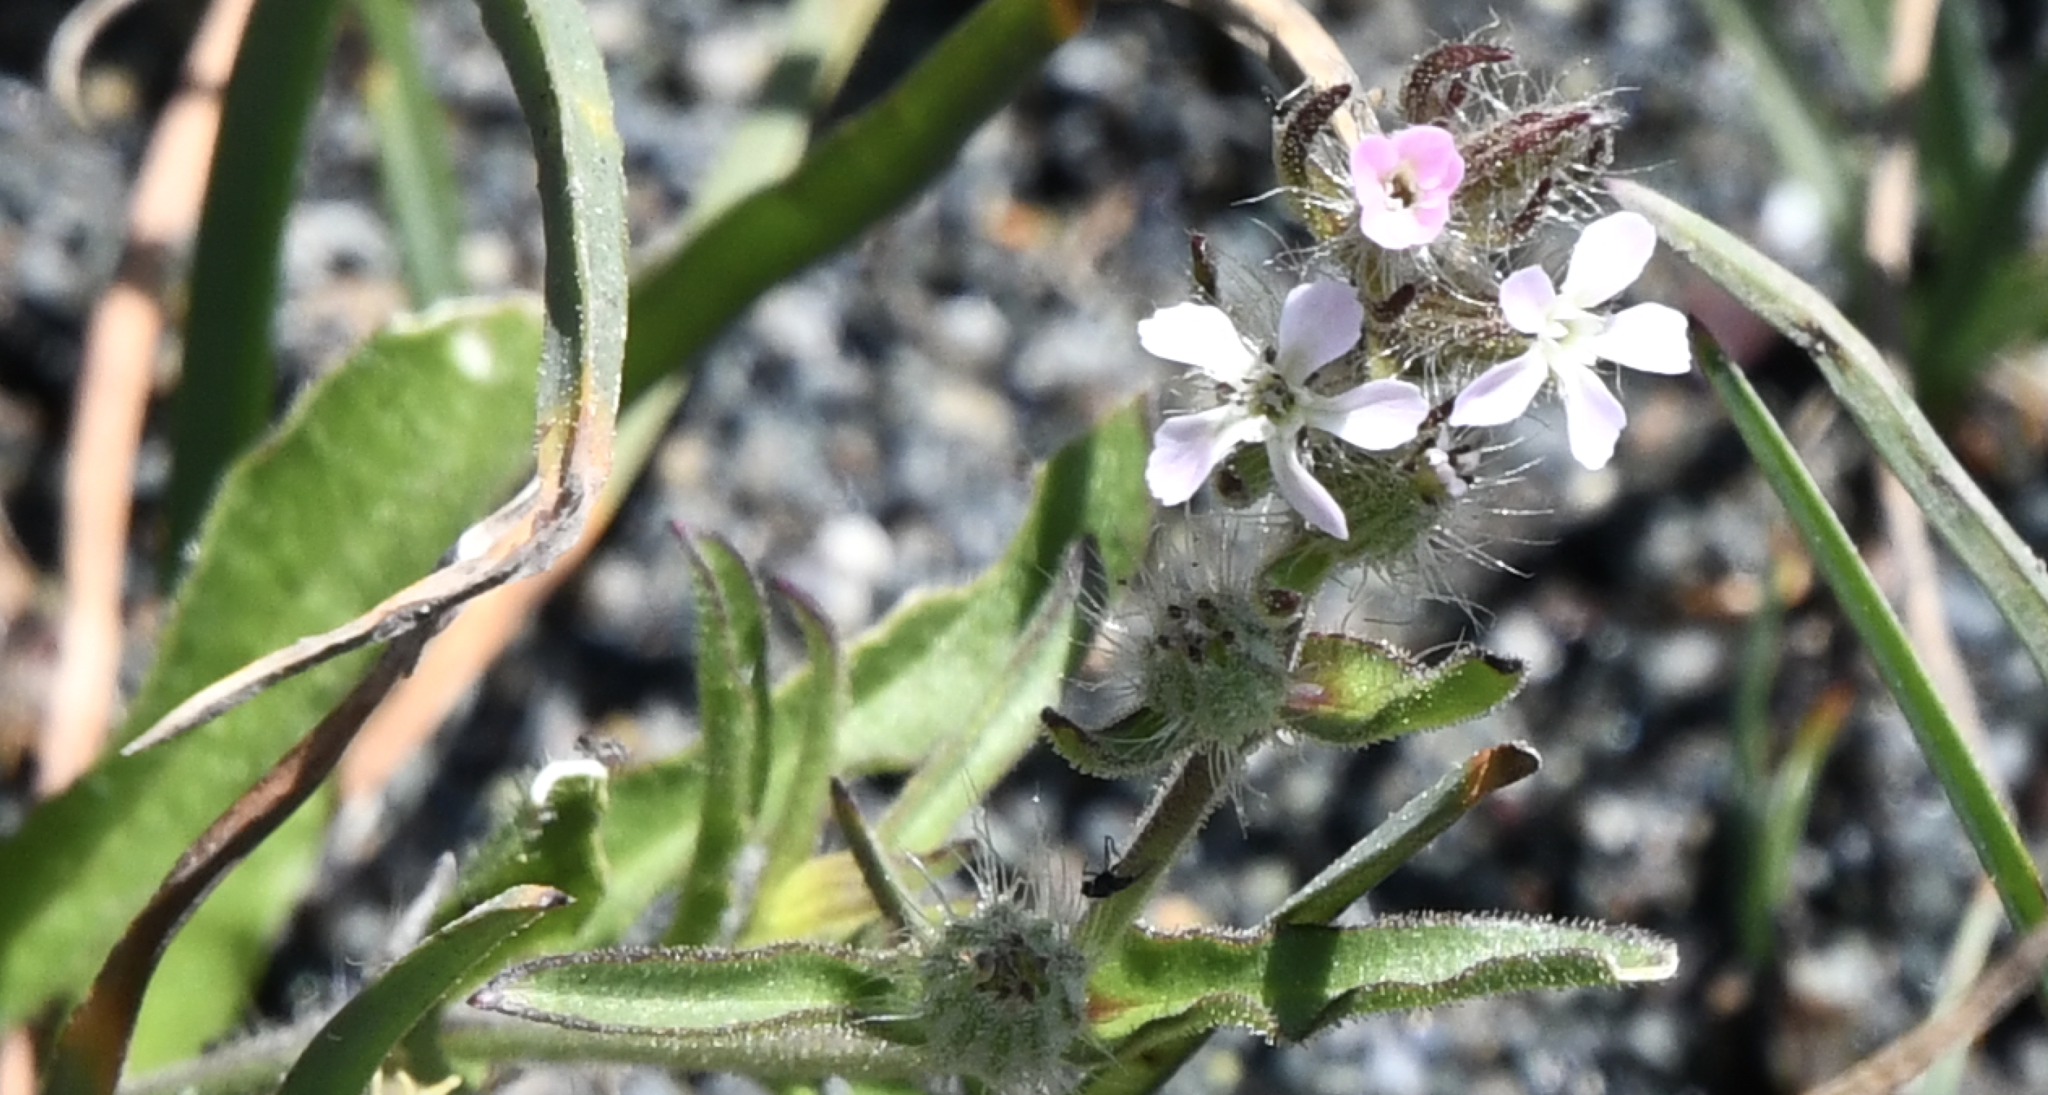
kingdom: Plantae
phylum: Tracheophyta
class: Magnoliopsida
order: Caryophyllales
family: Caryophyllaceae
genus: Silene
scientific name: Silene gallica
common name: Small-flowered catchfly
